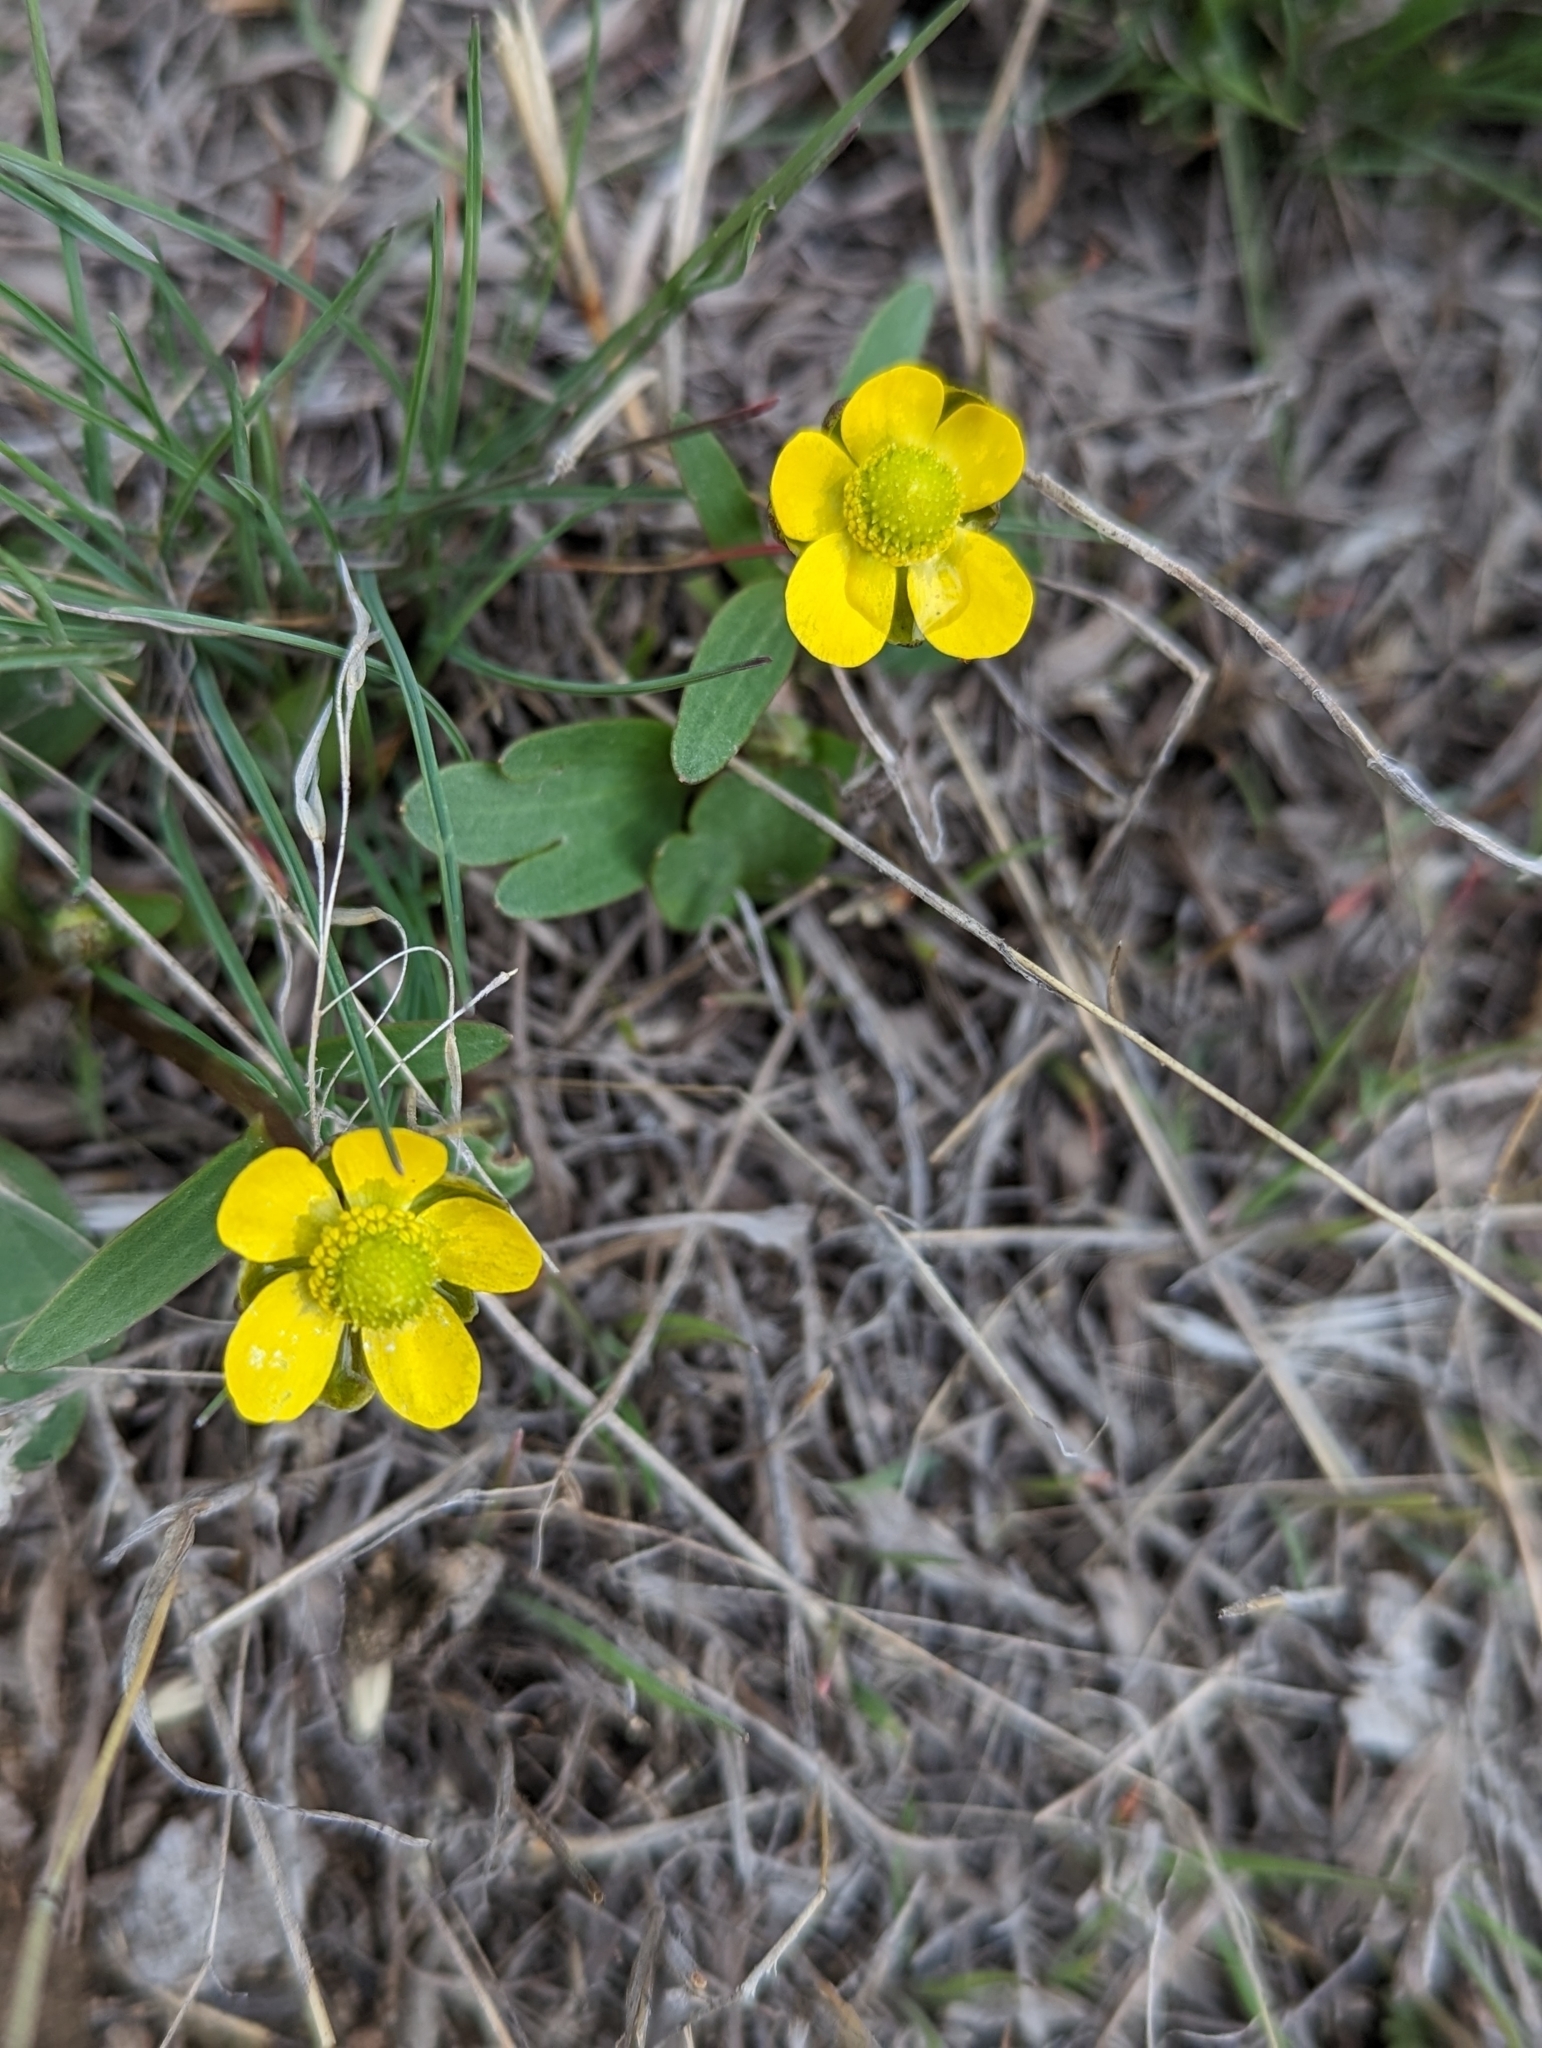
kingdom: Plantae
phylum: Tracheophyta
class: Magnoliopsida
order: Ranunculales
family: Ranunculaceae
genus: Ranunculus
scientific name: Ranunculus glaberrimus
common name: Sagebrush buttercup
